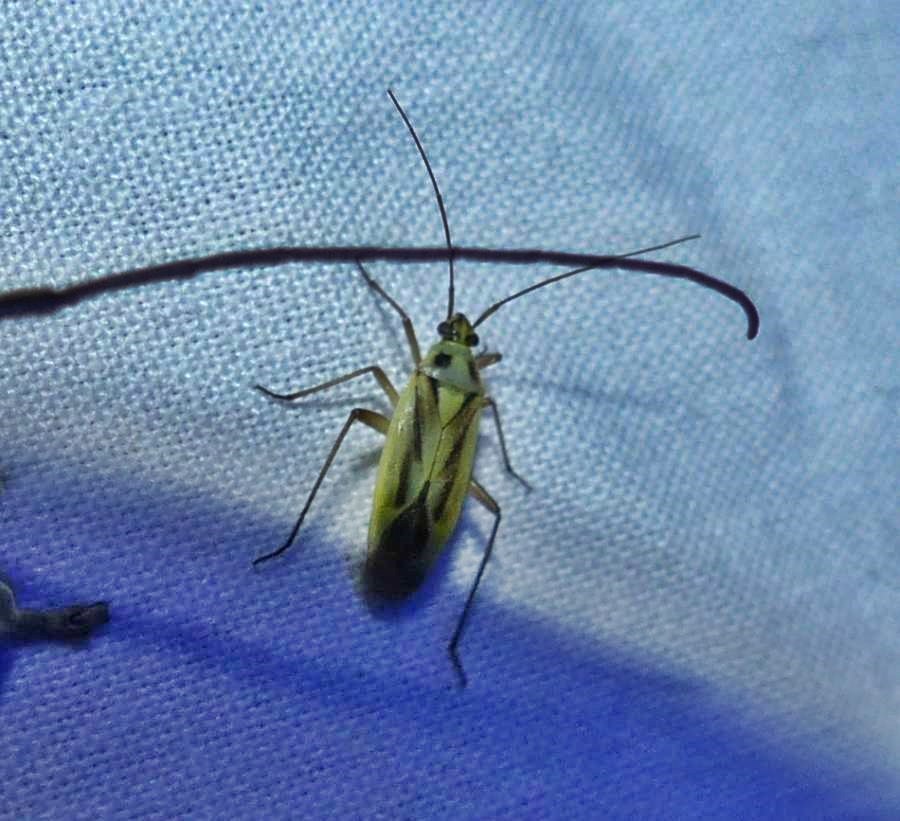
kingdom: Animalia
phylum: Arthropoda
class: Insecta
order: Hemiptera
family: Miridae
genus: Stenotus
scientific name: Stenotus binotatus
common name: Plant bug
